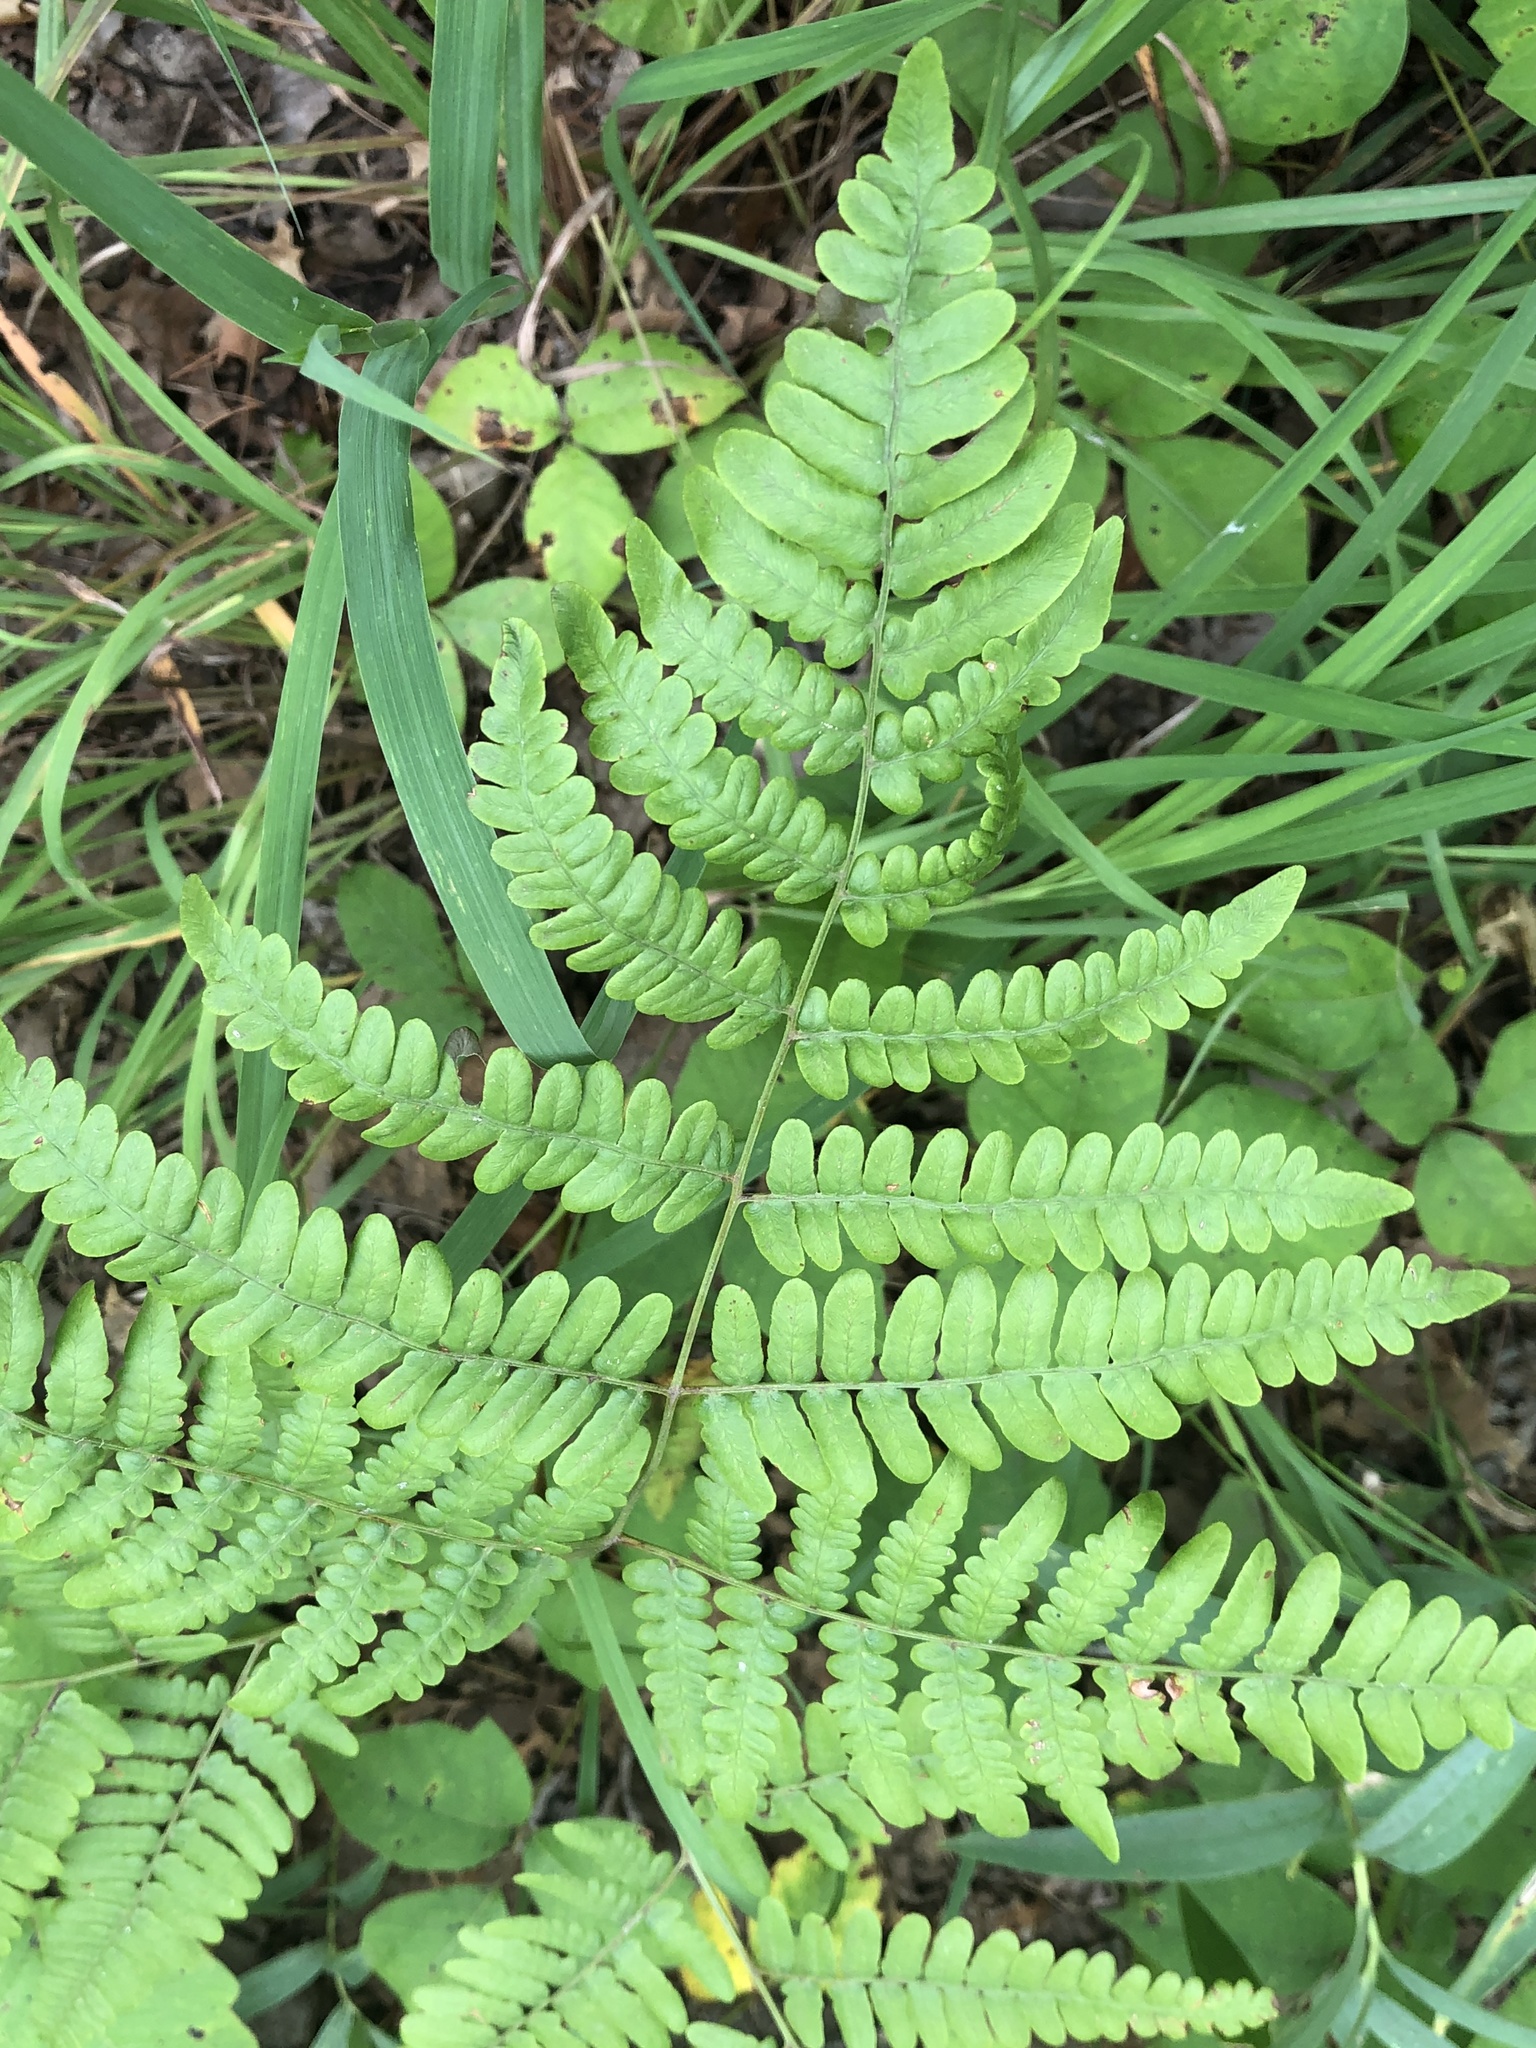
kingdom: Plantae
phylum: Tracheophyta
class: Polypodiopsida
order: Polypodiales
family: Dennstaedtiaceae
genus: Pteridium
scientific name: Pteridium aquilinum
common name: Bracken
